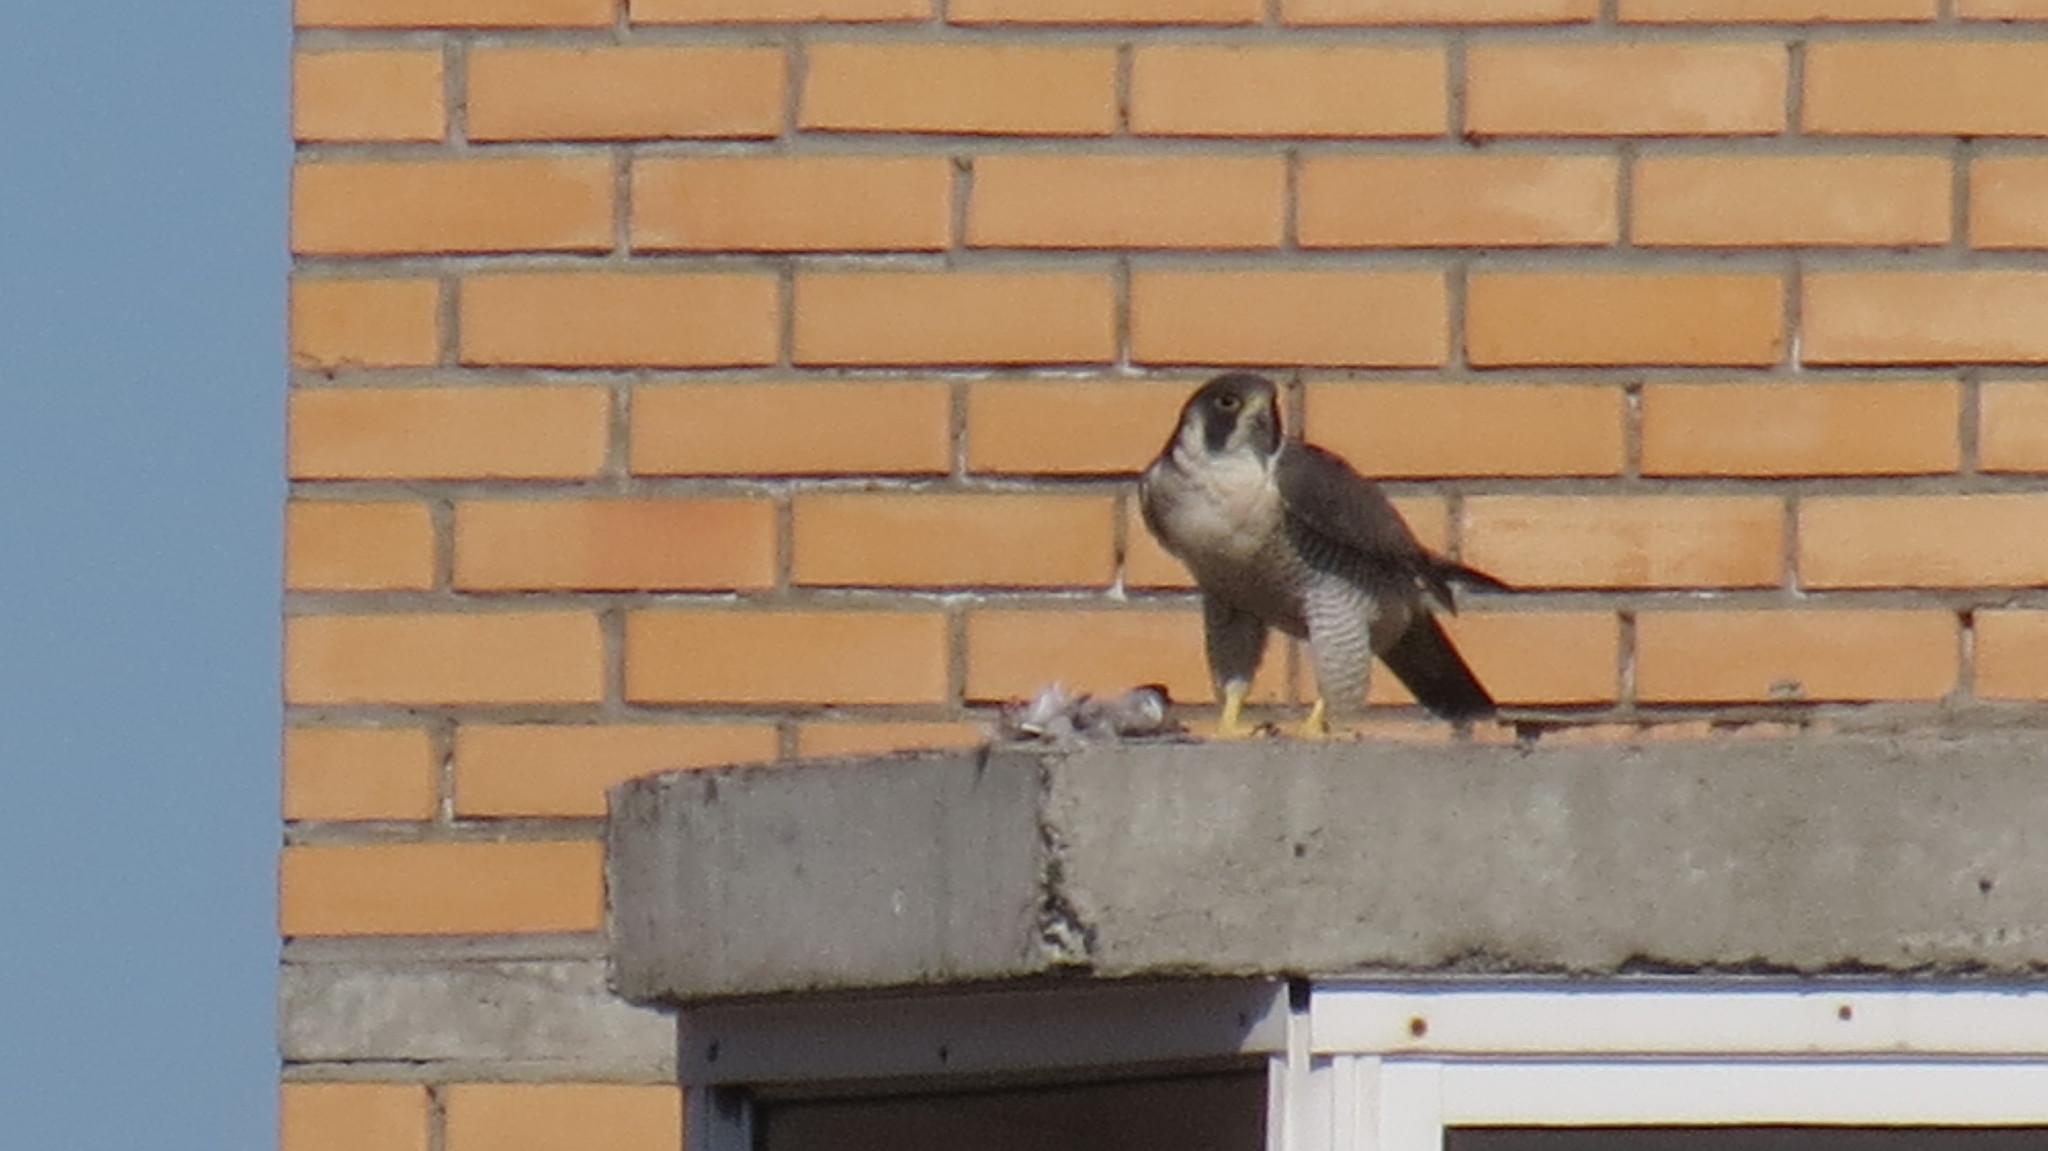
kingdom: Animalia
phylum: Chordata
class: Aves
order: Falconiformes
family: Falconidae
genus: Falco
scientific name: Falco peregrinus
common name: Peregrine falcon
